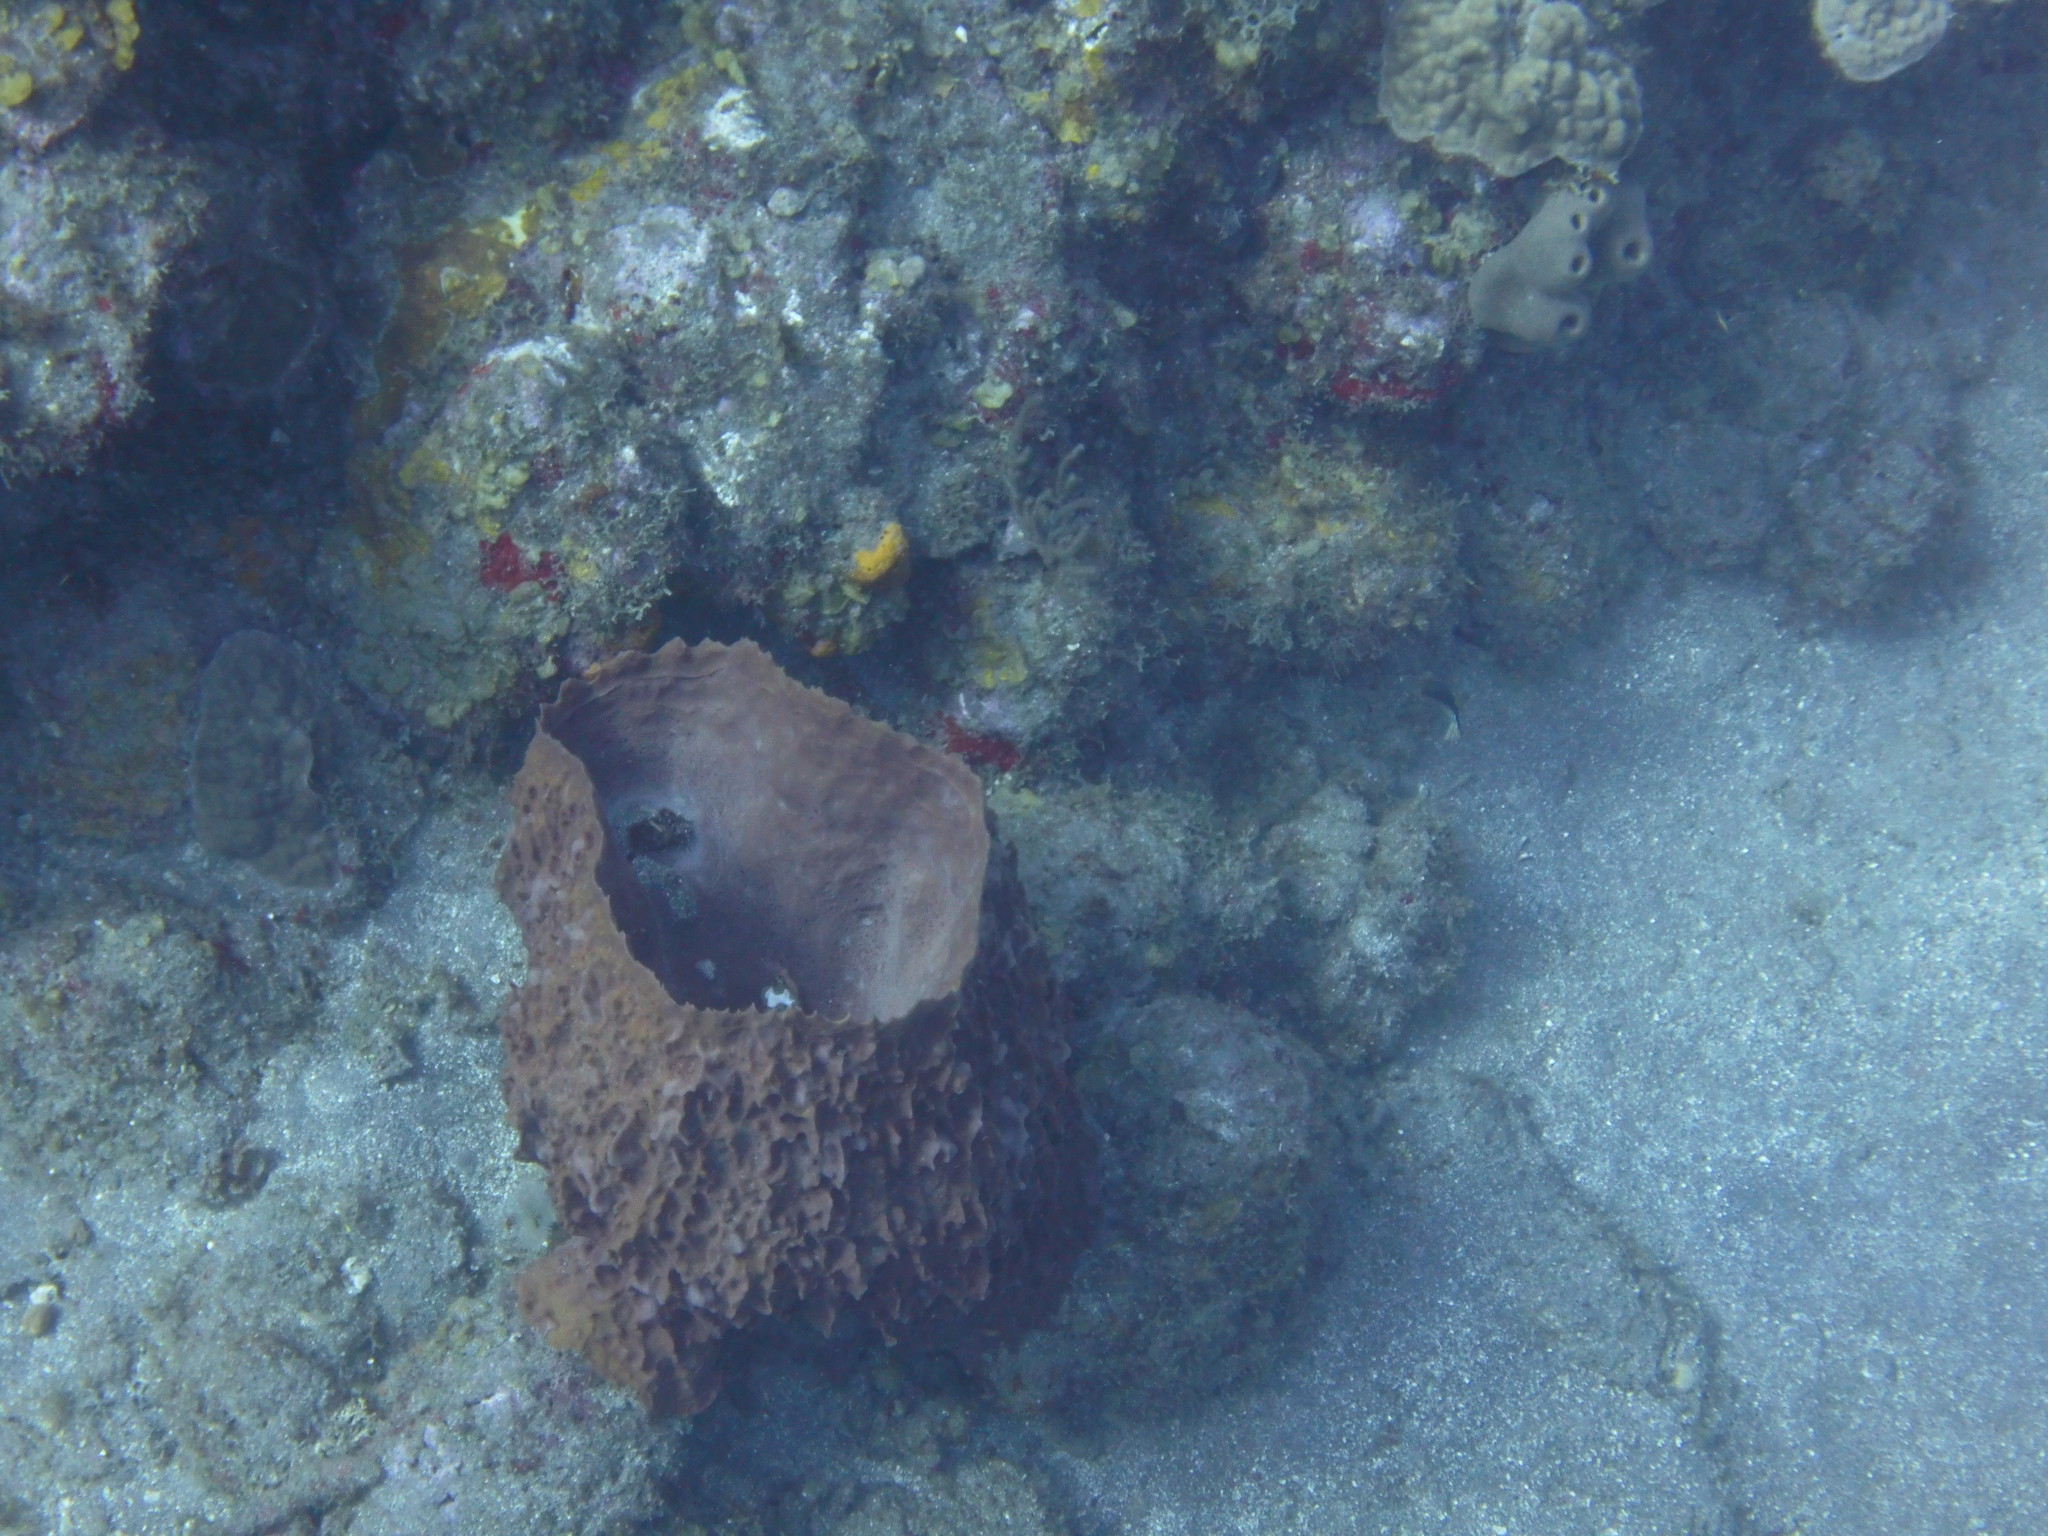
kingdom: Animalia
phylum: Porifera
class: Demospongiae
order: Haplosclerida
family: Petrosiidae
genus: Xestospongia
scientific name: Xestospongia muta
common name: Giant barrel sponge
